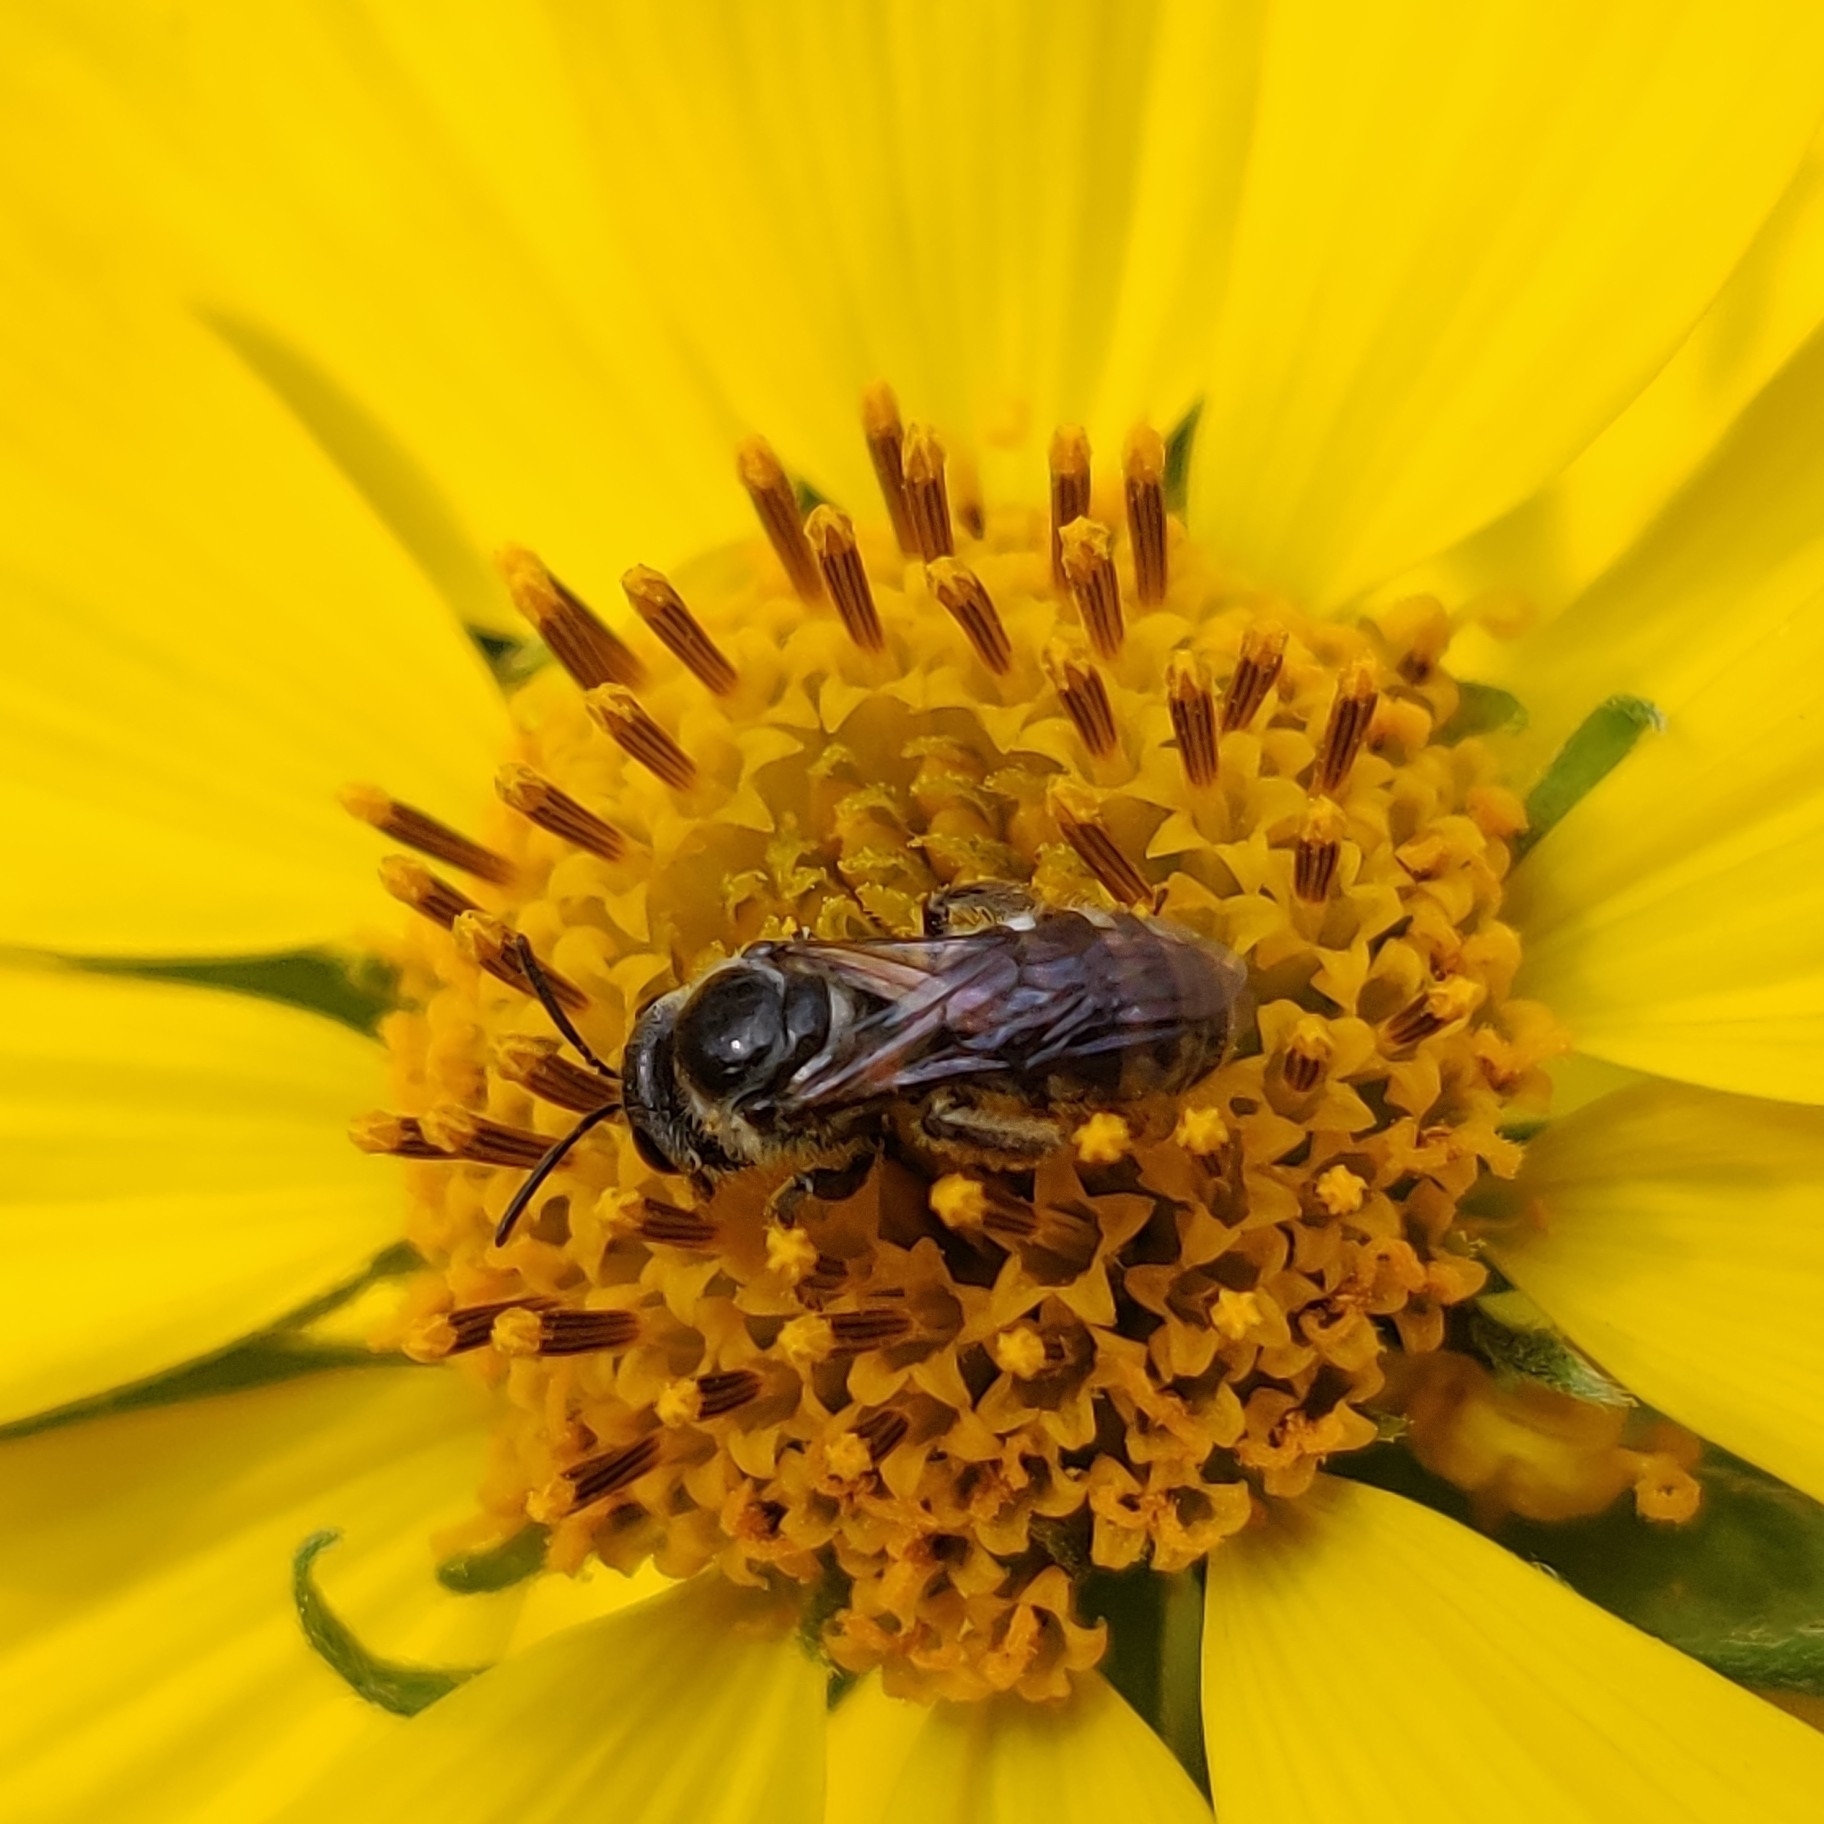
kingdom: Animalia
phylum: Arthropoda
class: Insecta
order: Hymenoptera
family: Halictidae
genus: Lasioglossum
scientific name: Lasioglossum albescens
